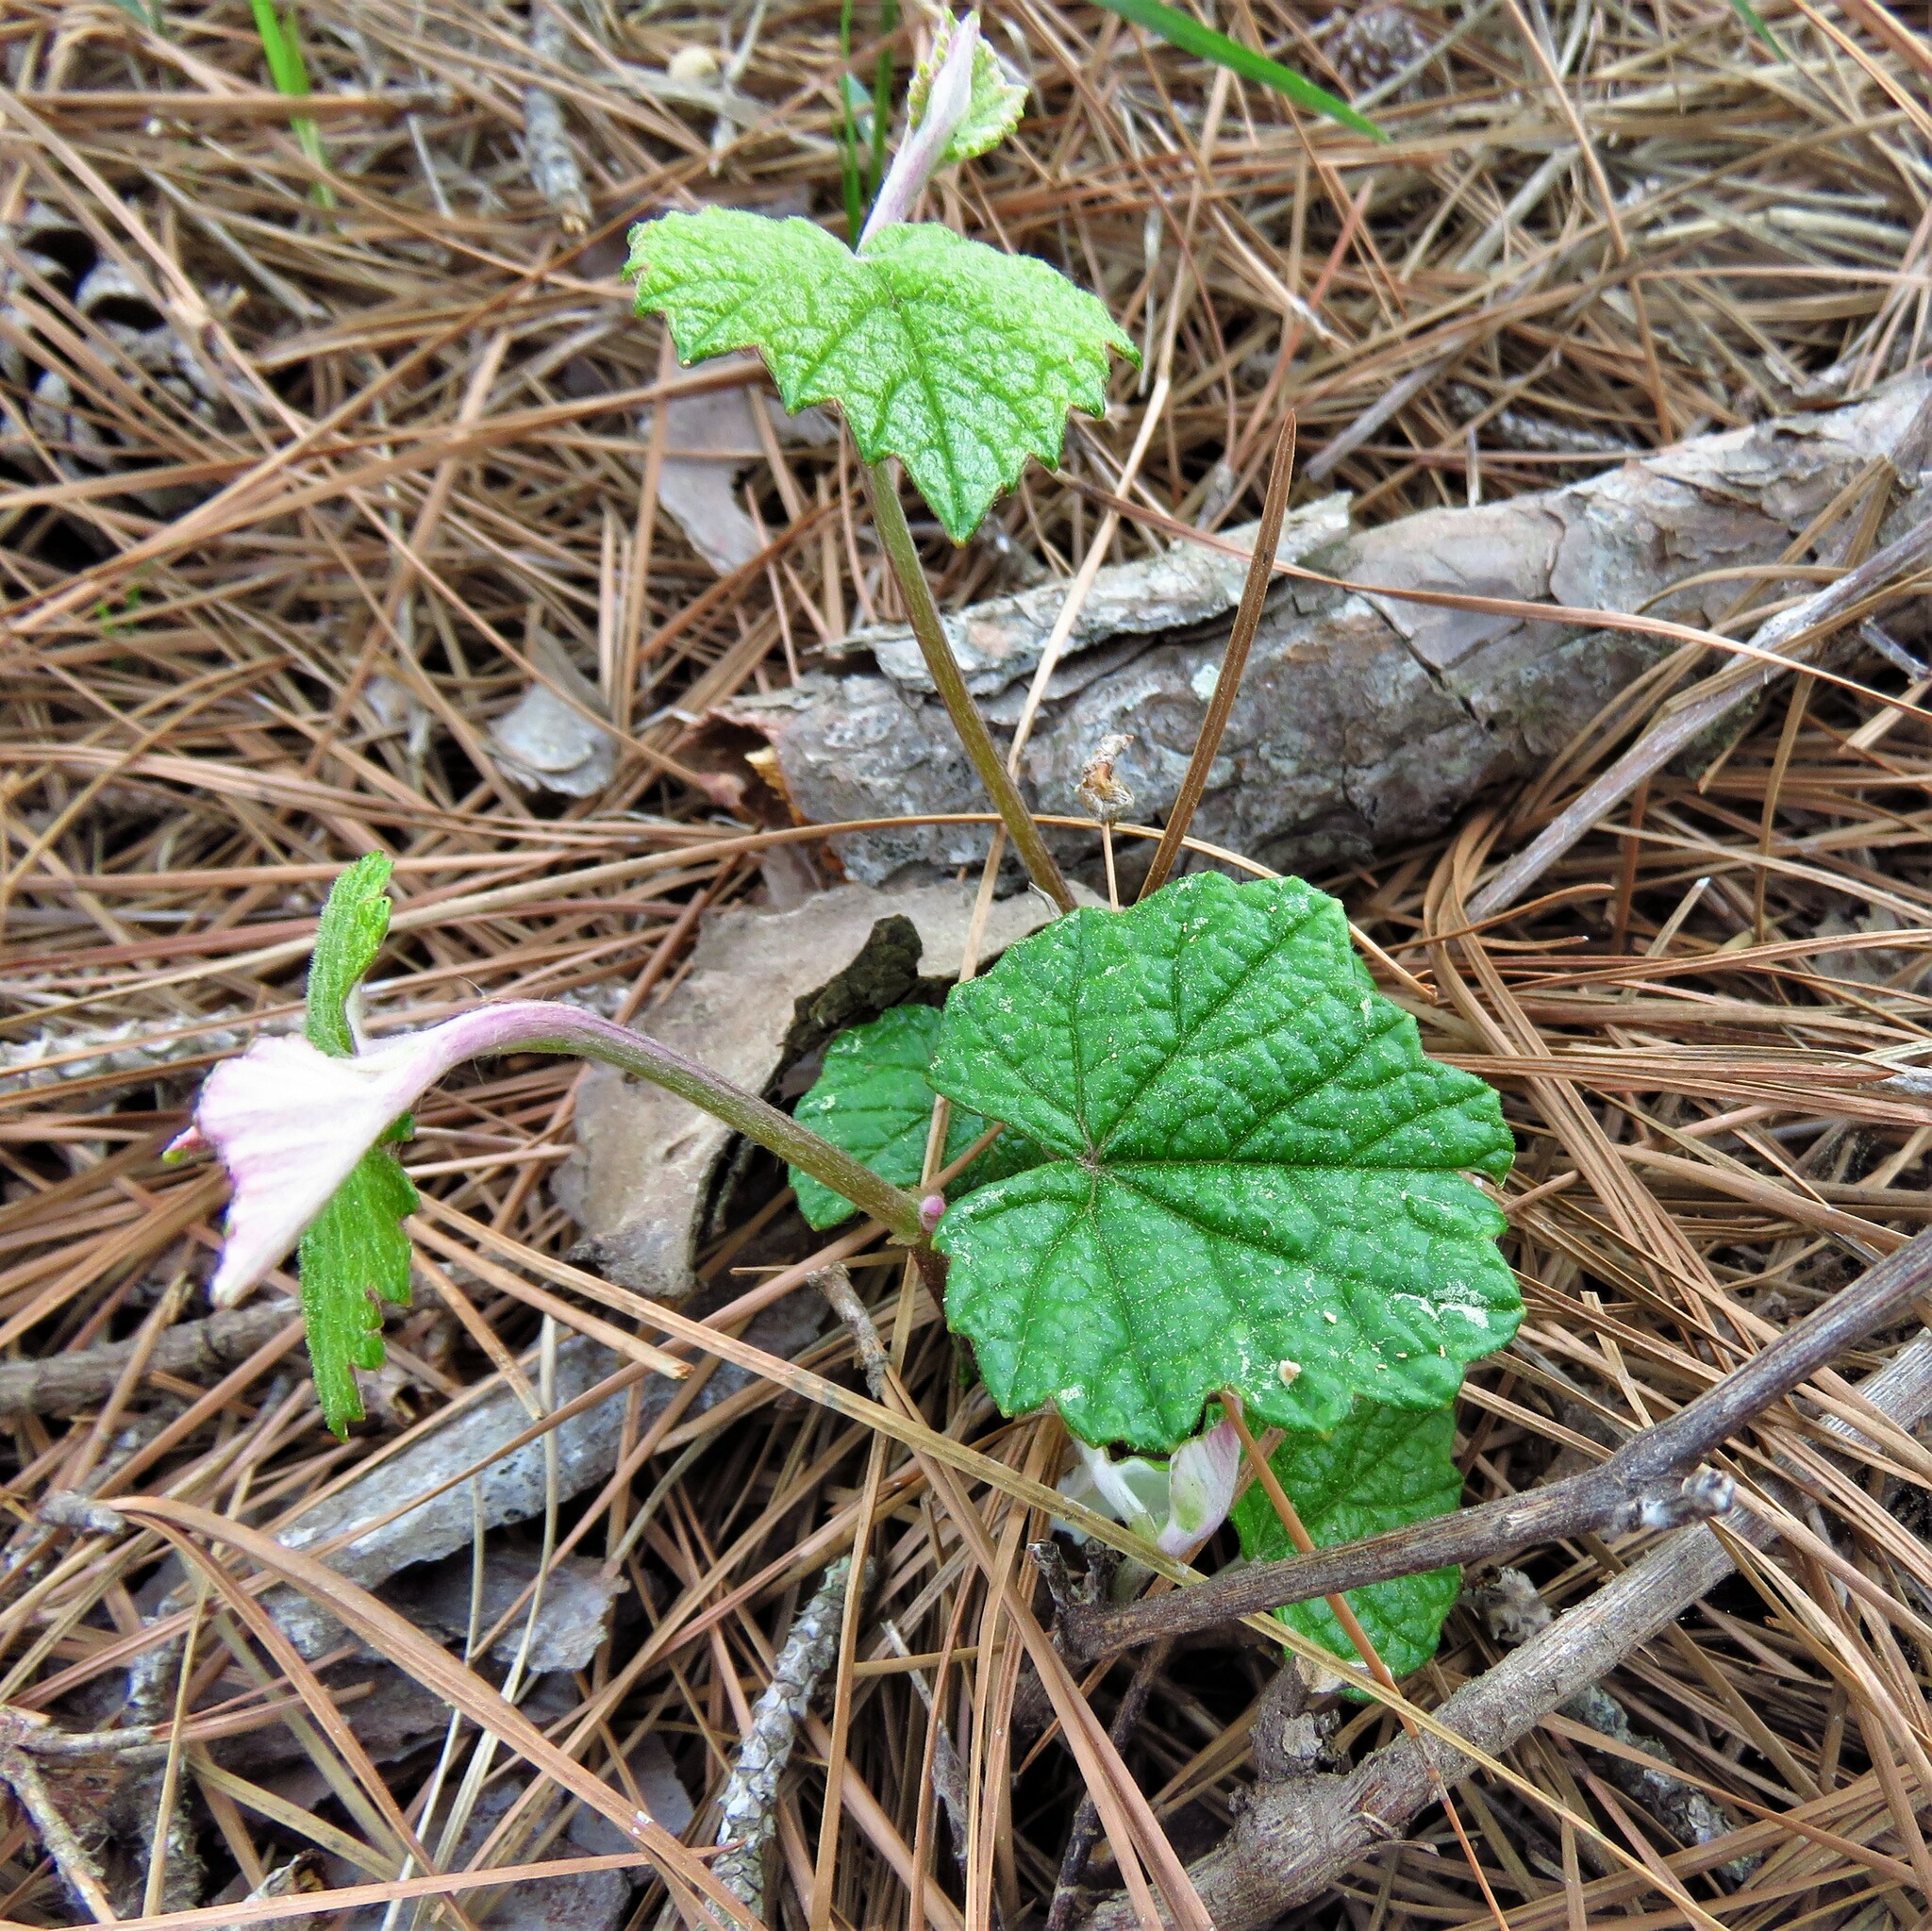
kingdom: Plantae
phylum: Tracheophyta
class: Magnoliopsida
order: Vitales
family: Vitaceae
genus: Vitis
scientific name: Vitis mustangensis
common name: Mustang grape
